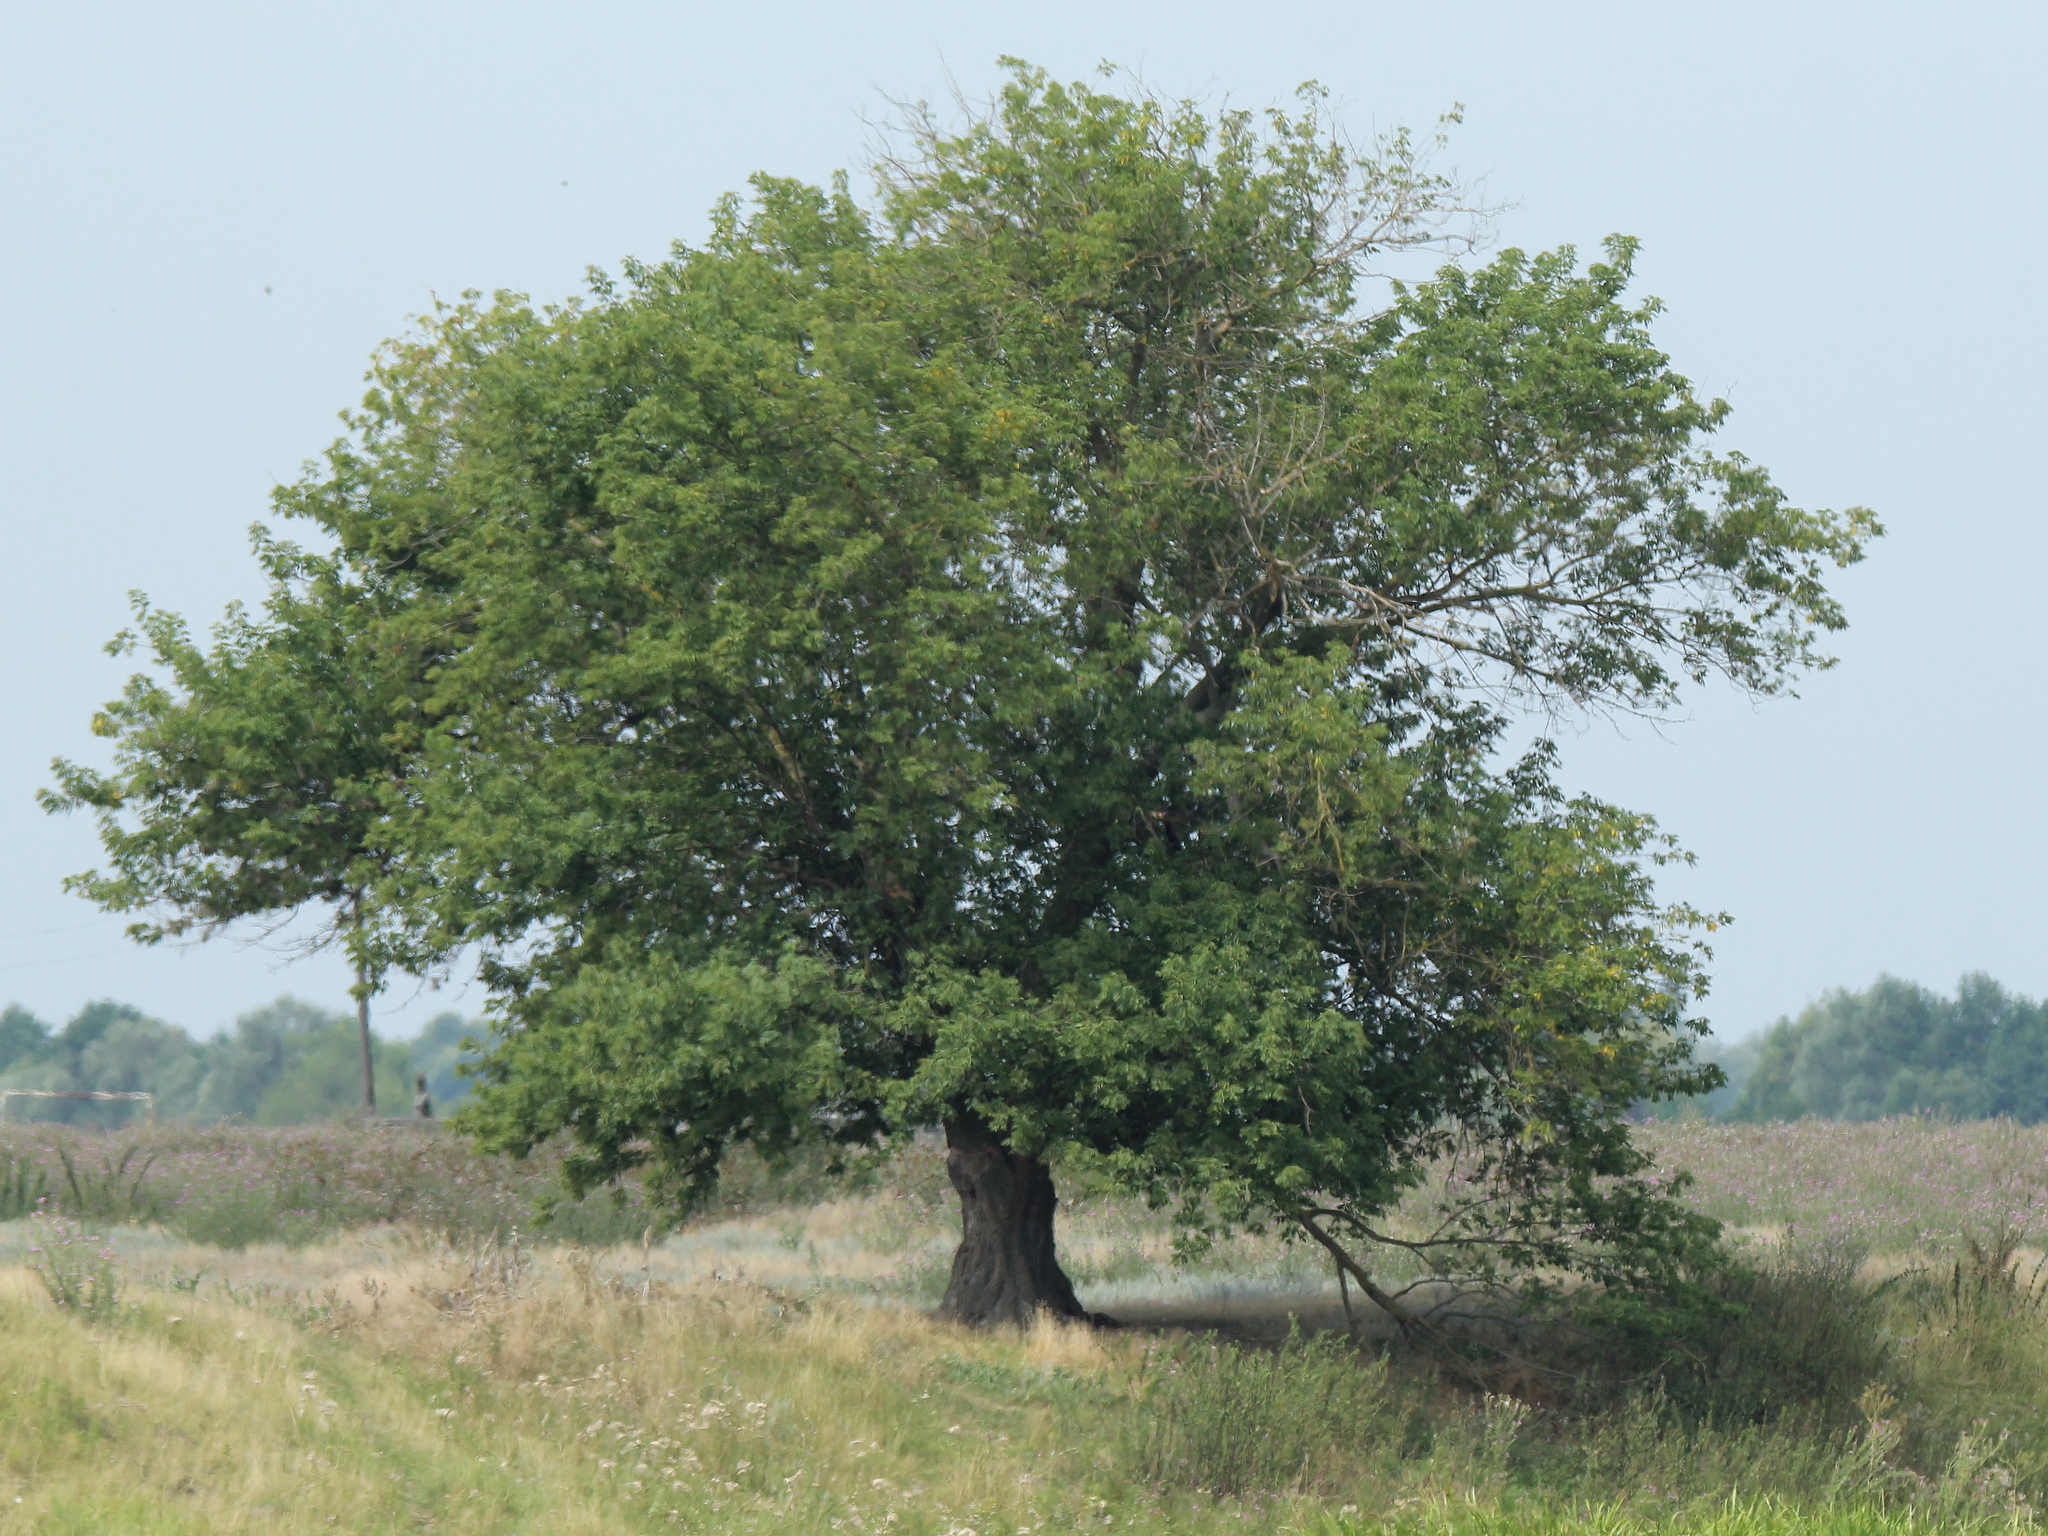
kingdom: Plantae
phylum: Tracheophyta
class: Magnoliopsida
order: Fagales
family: Fagaceae
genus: Quercus
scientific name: Quercus robur
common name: Pedunculate oak
